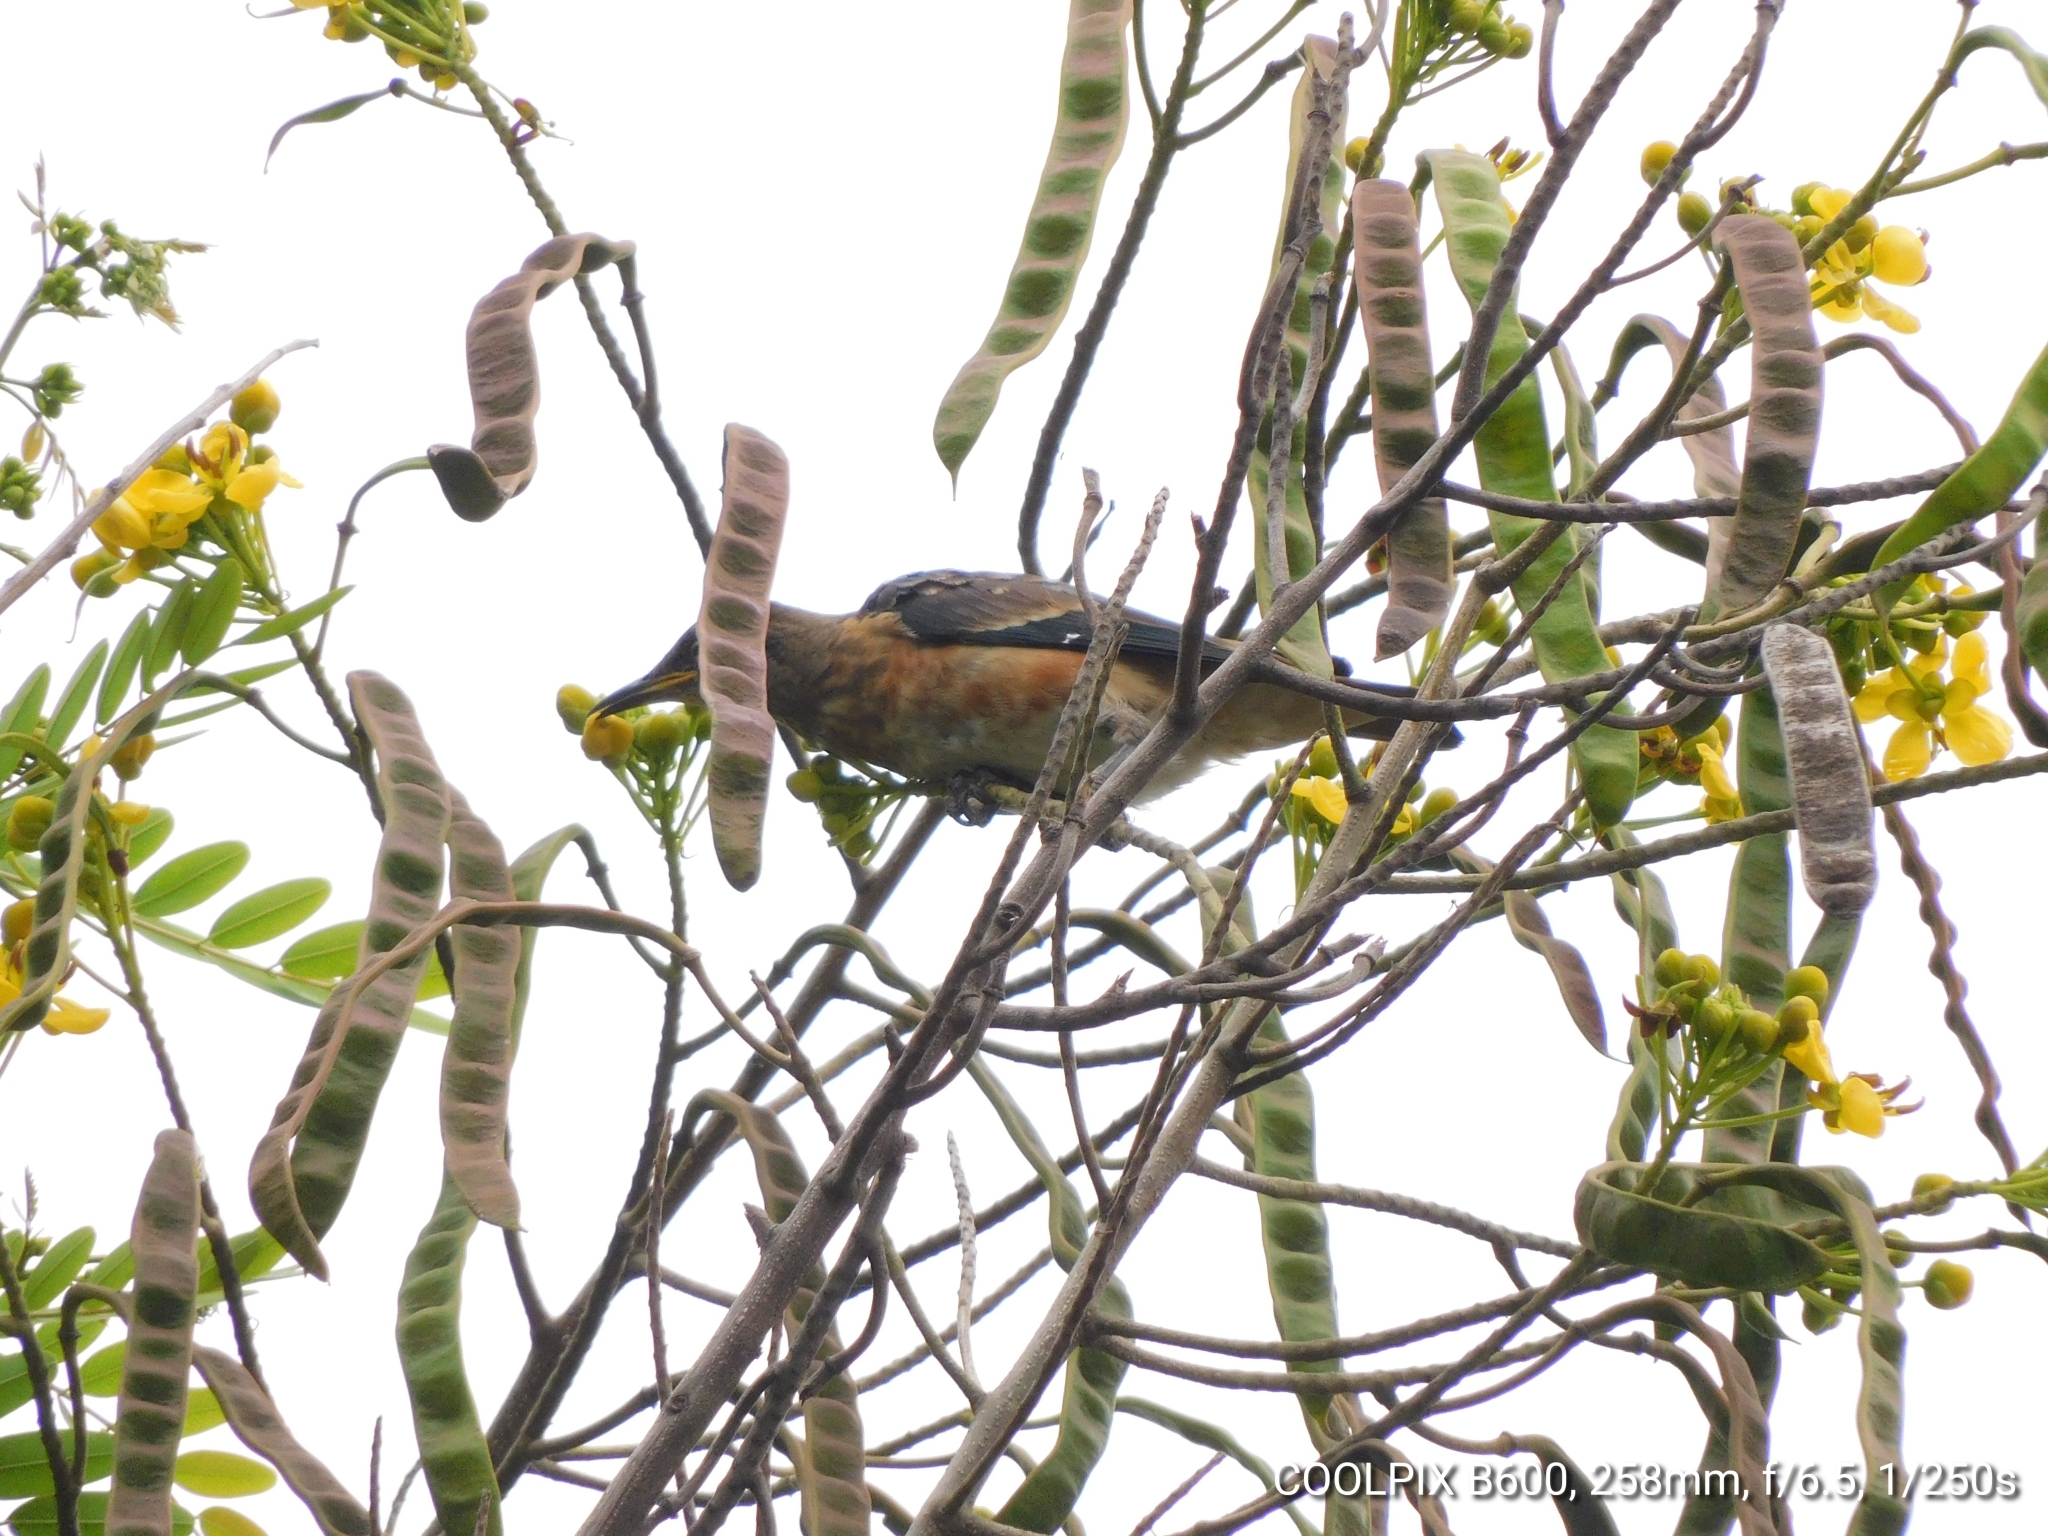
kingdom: Animalia
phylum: Chordata
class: Aves
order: Passeriformes
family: Sturnidae
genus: Saroglossa
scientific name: Saroglossa spiloptera
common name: Spot-winged starling
